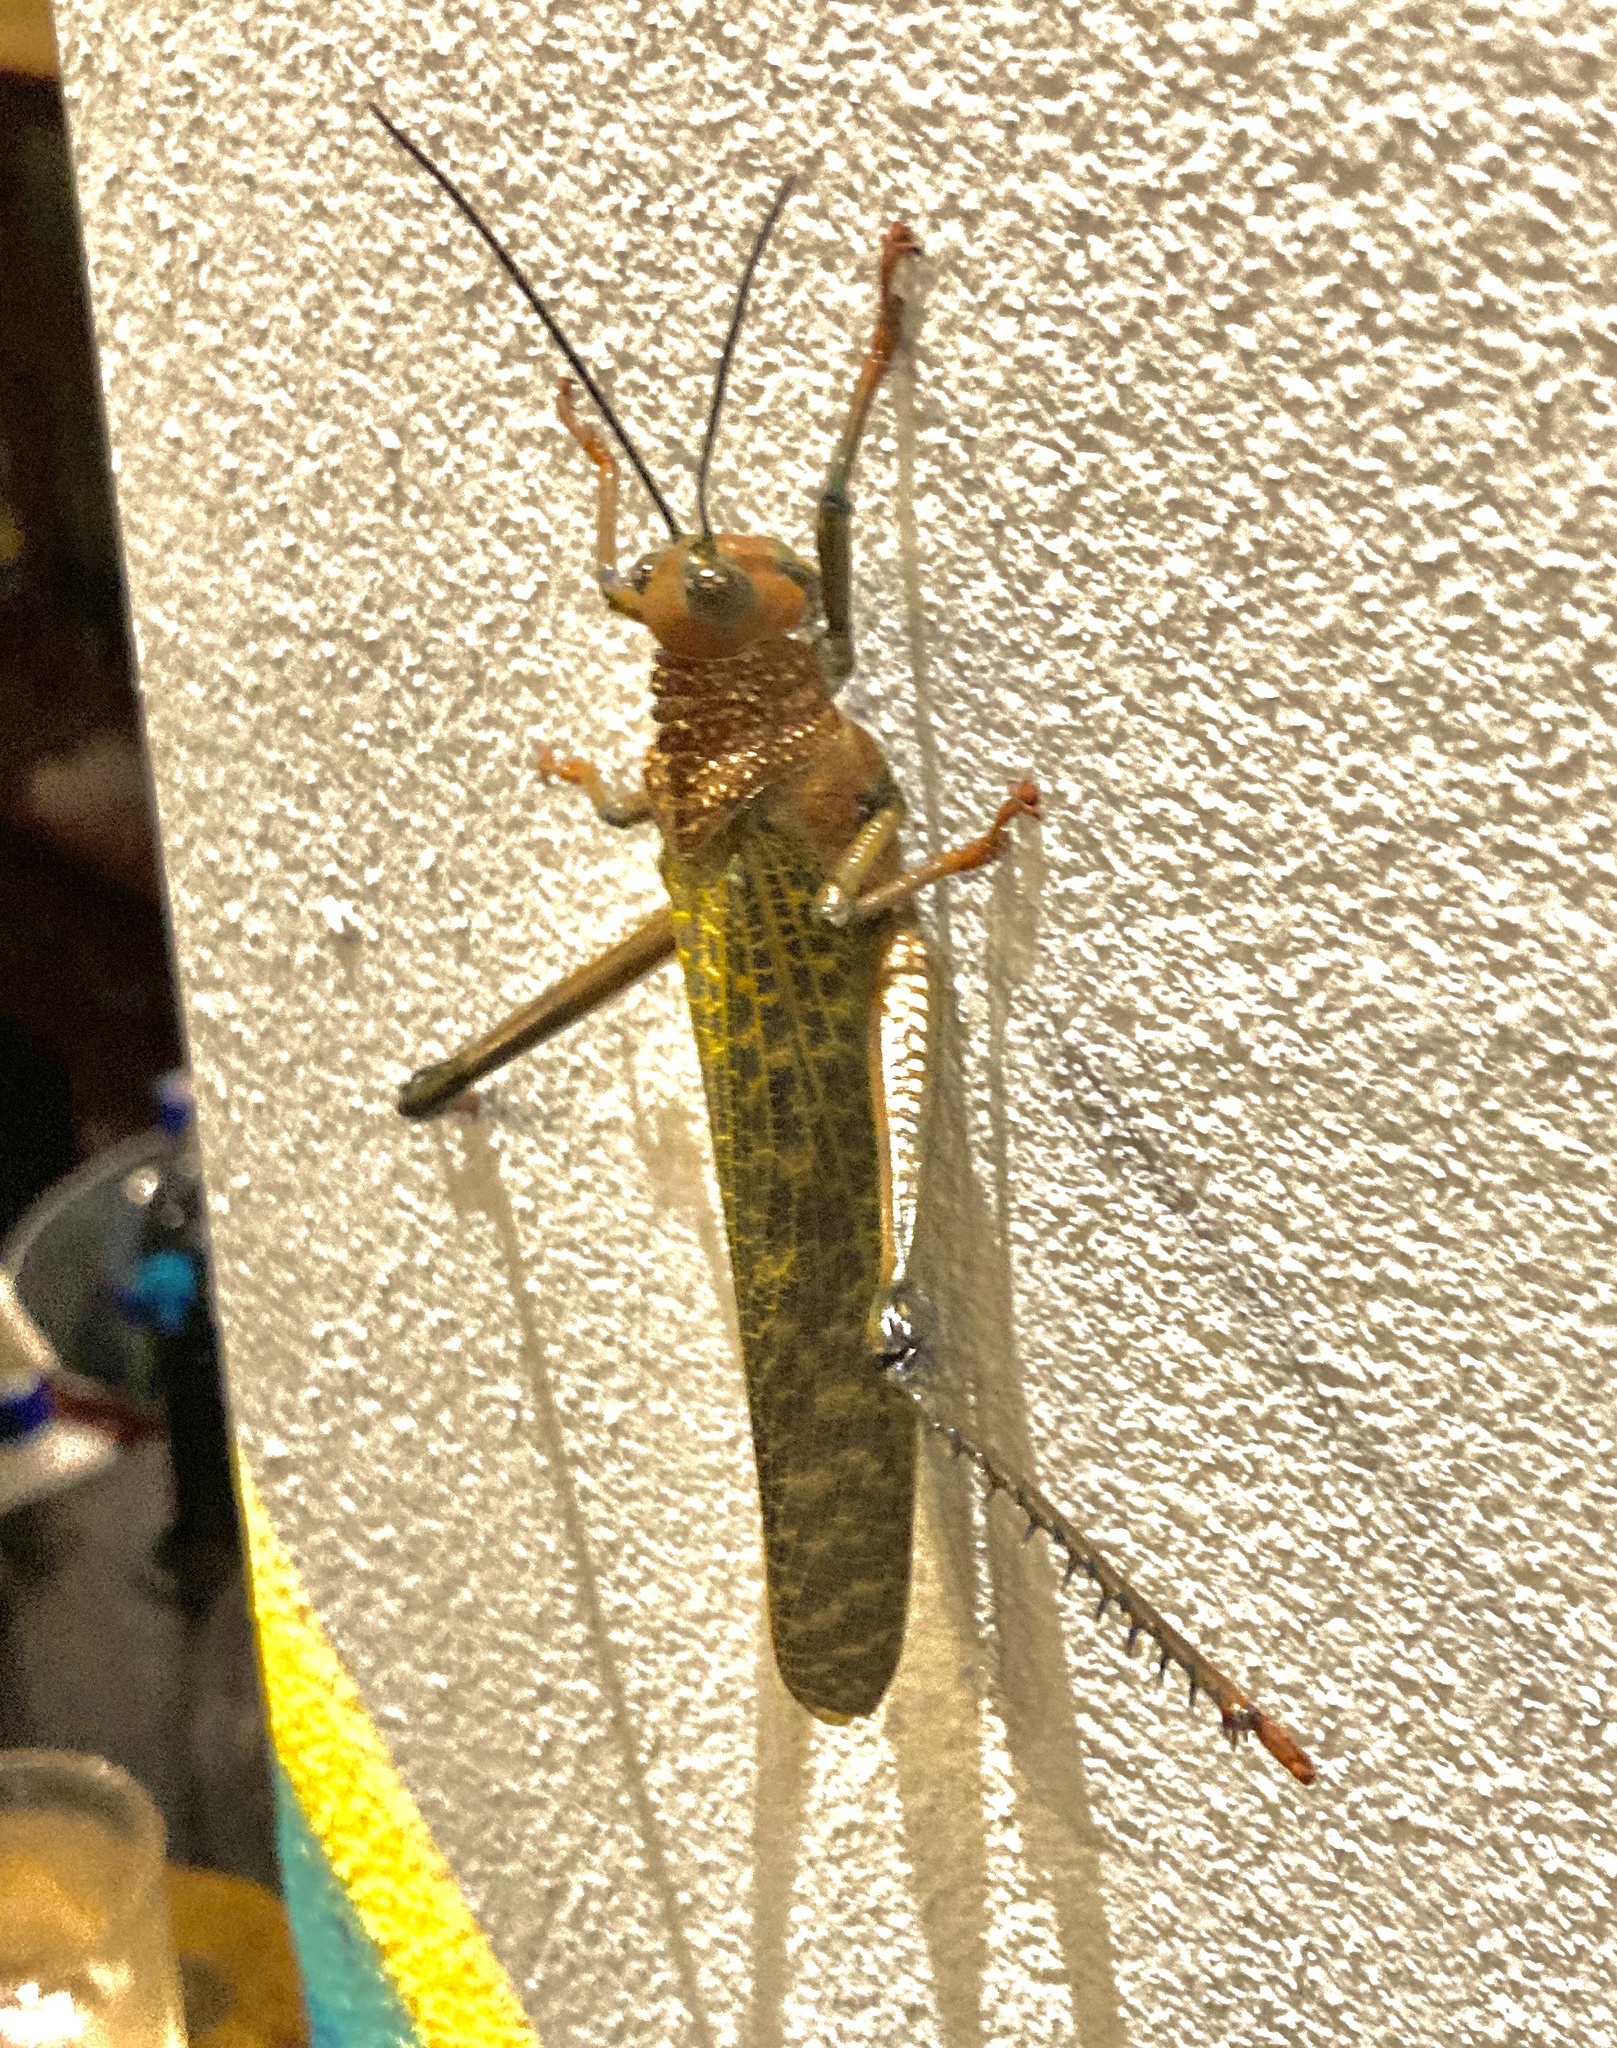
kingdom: Animalia
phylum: Arthropoda
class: Insecta
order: Orthoptera
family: Romaleidae
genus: Tropidacris
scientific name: Tropidacris cristata
